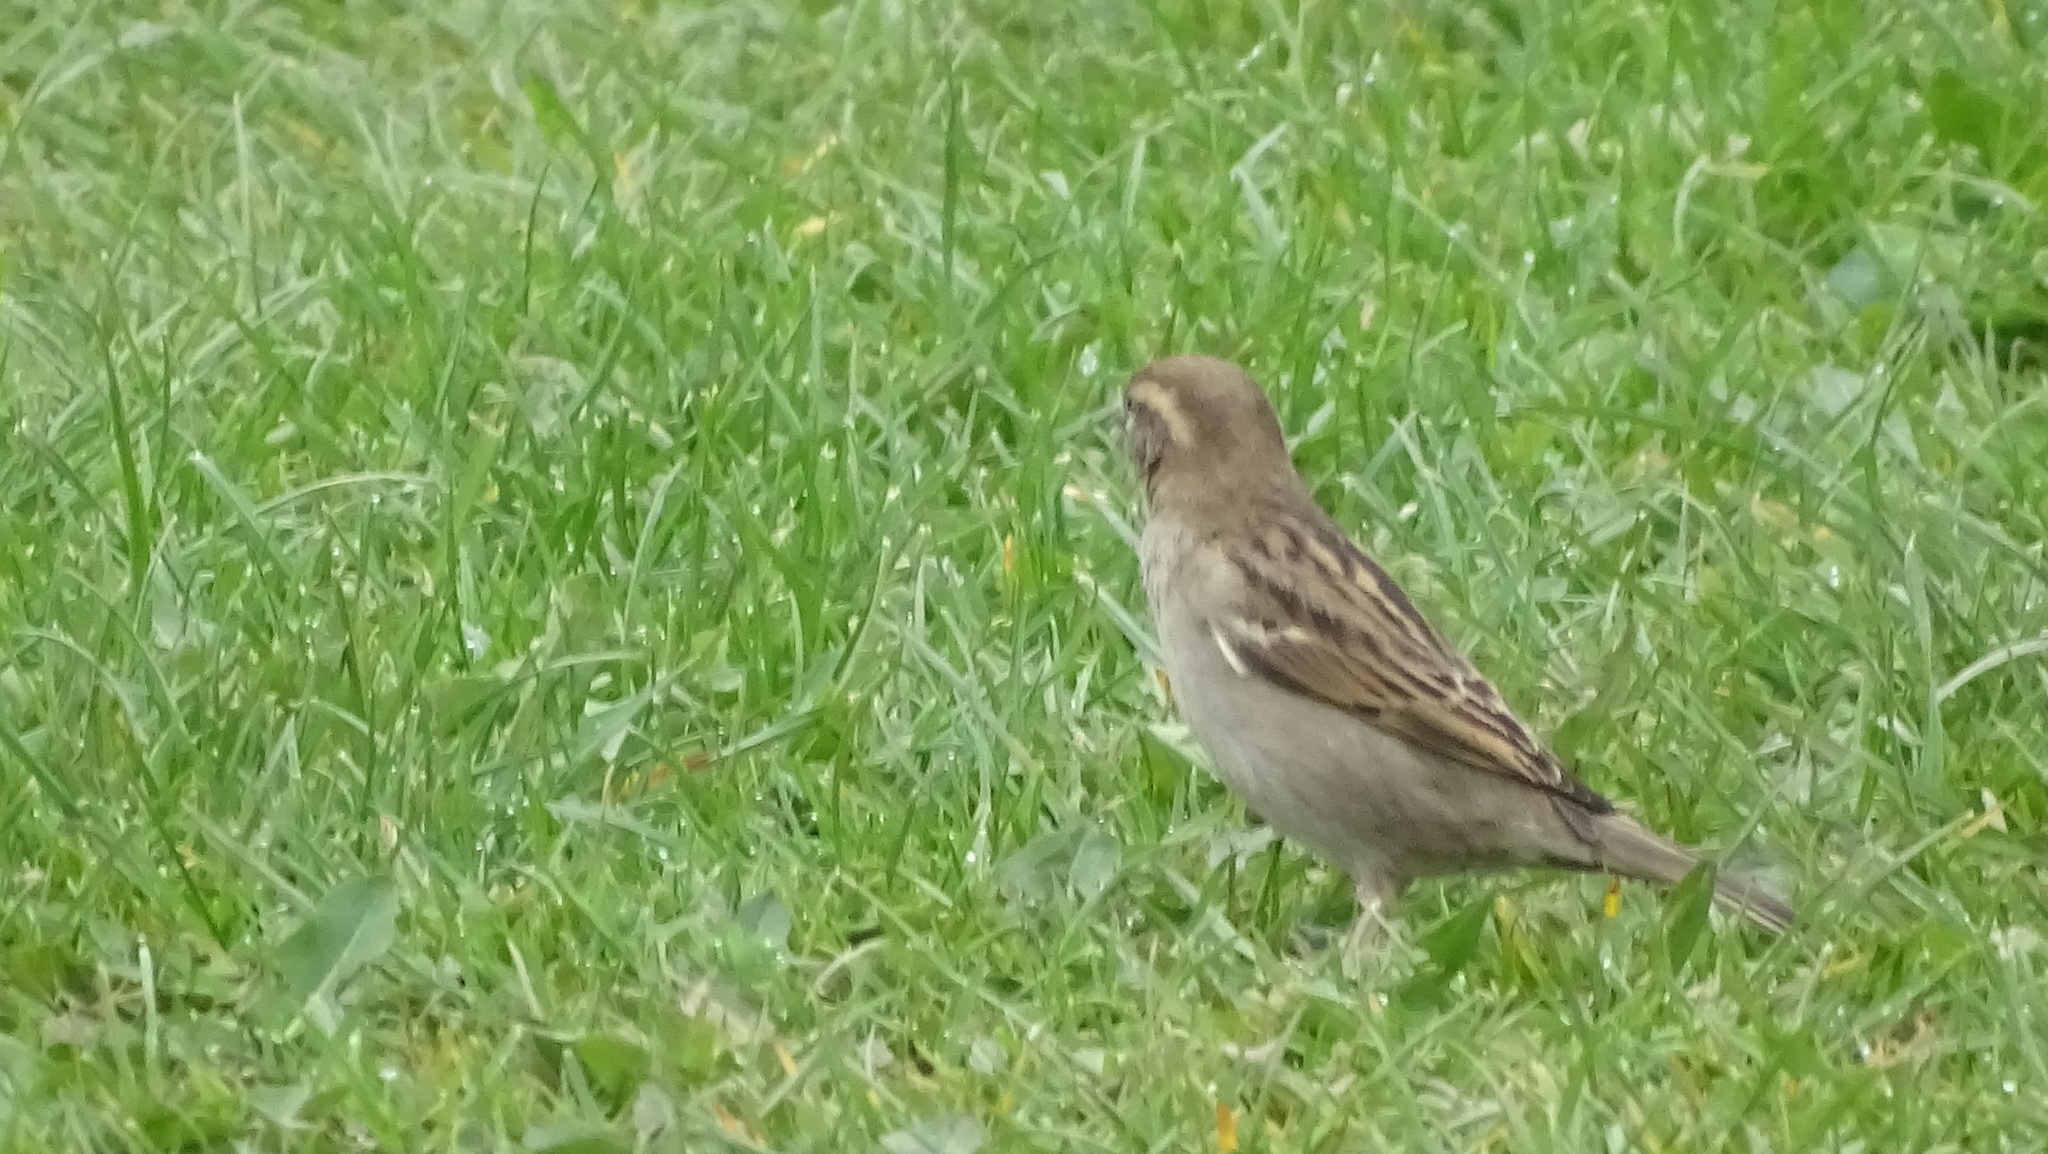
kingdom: Animalia
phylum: Chordata
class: Aves
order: Passeriformes
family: Passeridae
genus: Passer
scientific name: Passer domesticus
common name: House sparrow
